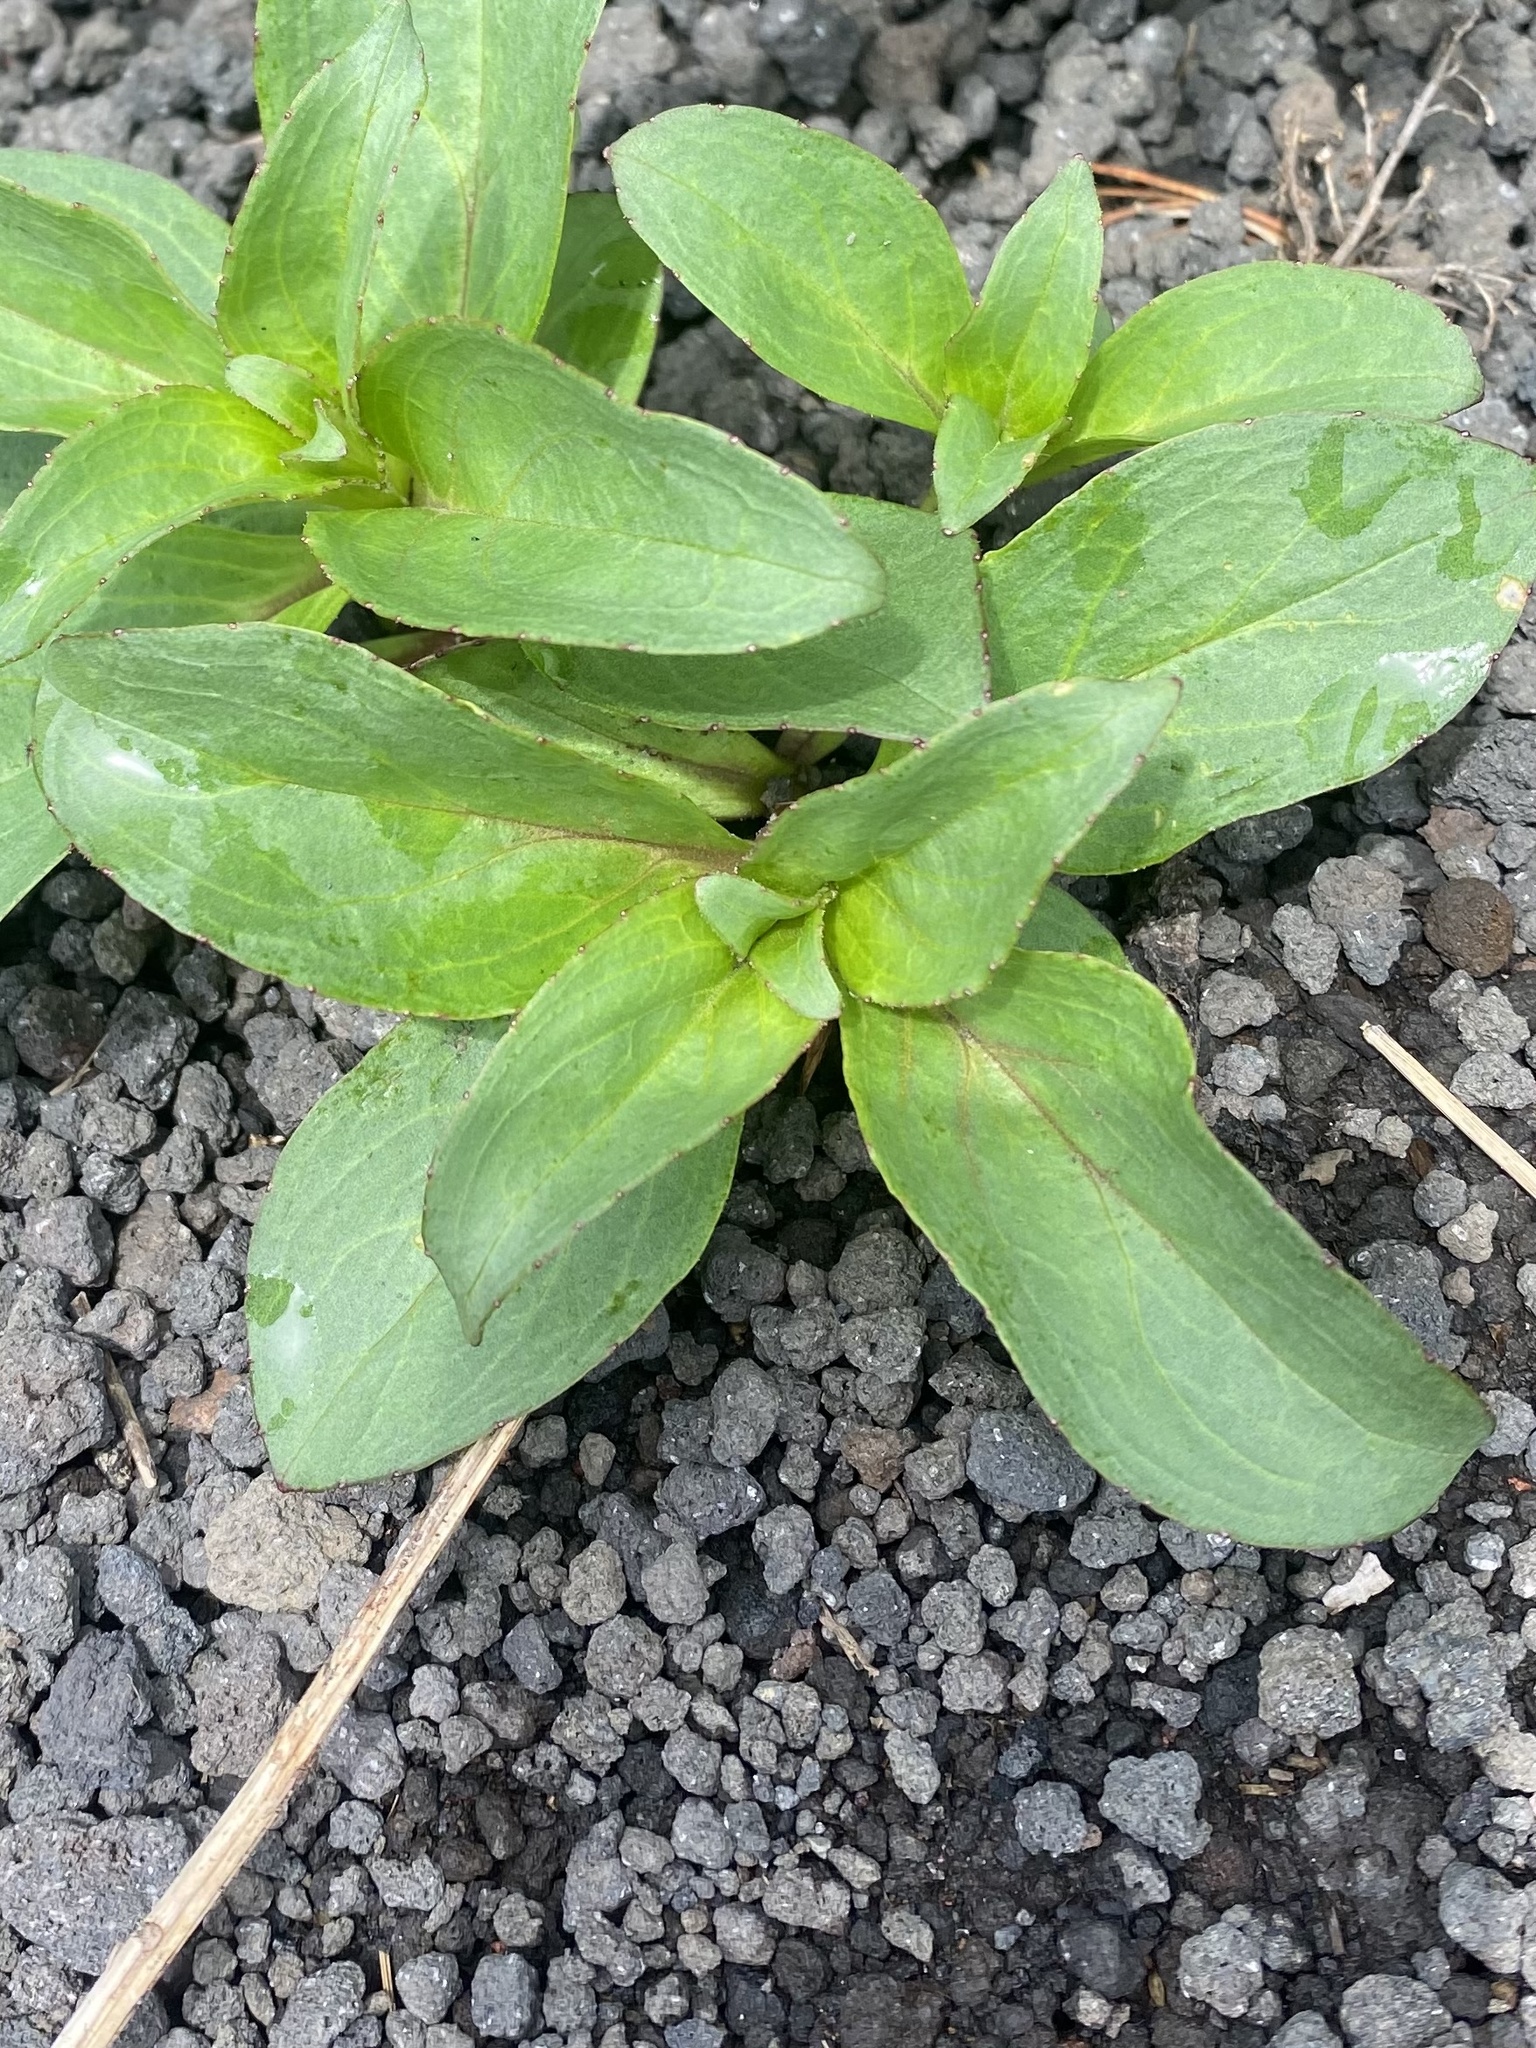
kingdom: Plantae
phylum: Tracheophyta
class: Magnoliopsida
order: Lamiales
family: Plantaginaceae
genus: Pennellianthus
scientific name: Pennellianthus frutescens
